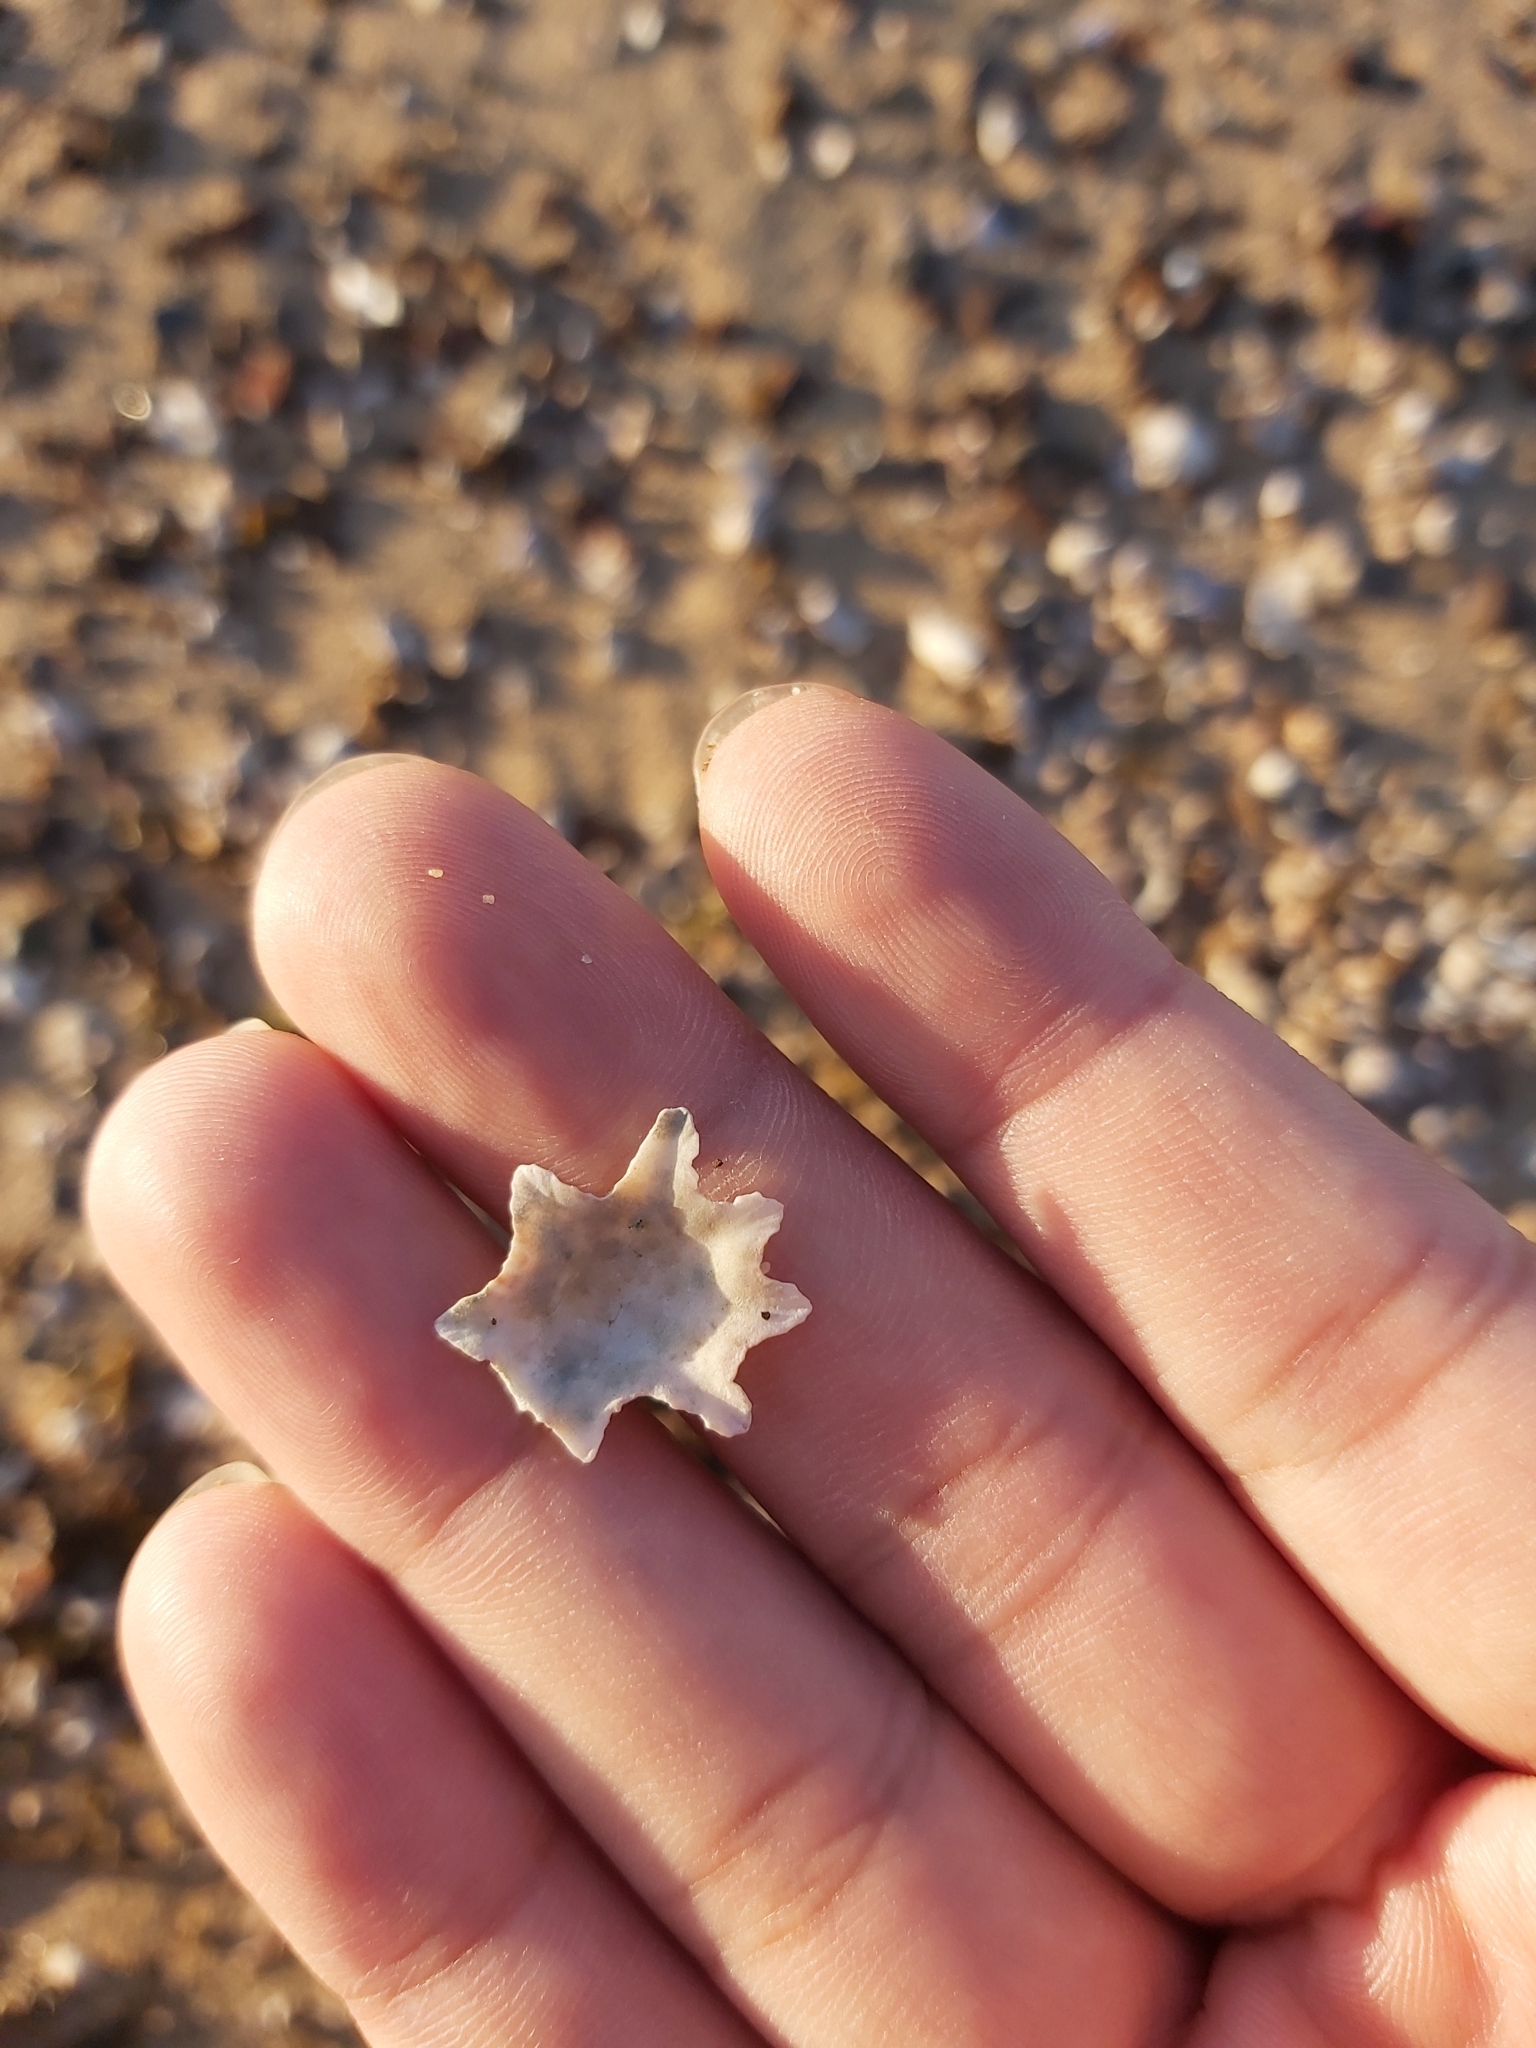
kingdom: Animalia
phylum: Mollusca
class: Gastropoda
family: Patellidae
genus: Scutellastra
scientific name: Scutellastra chapmani
